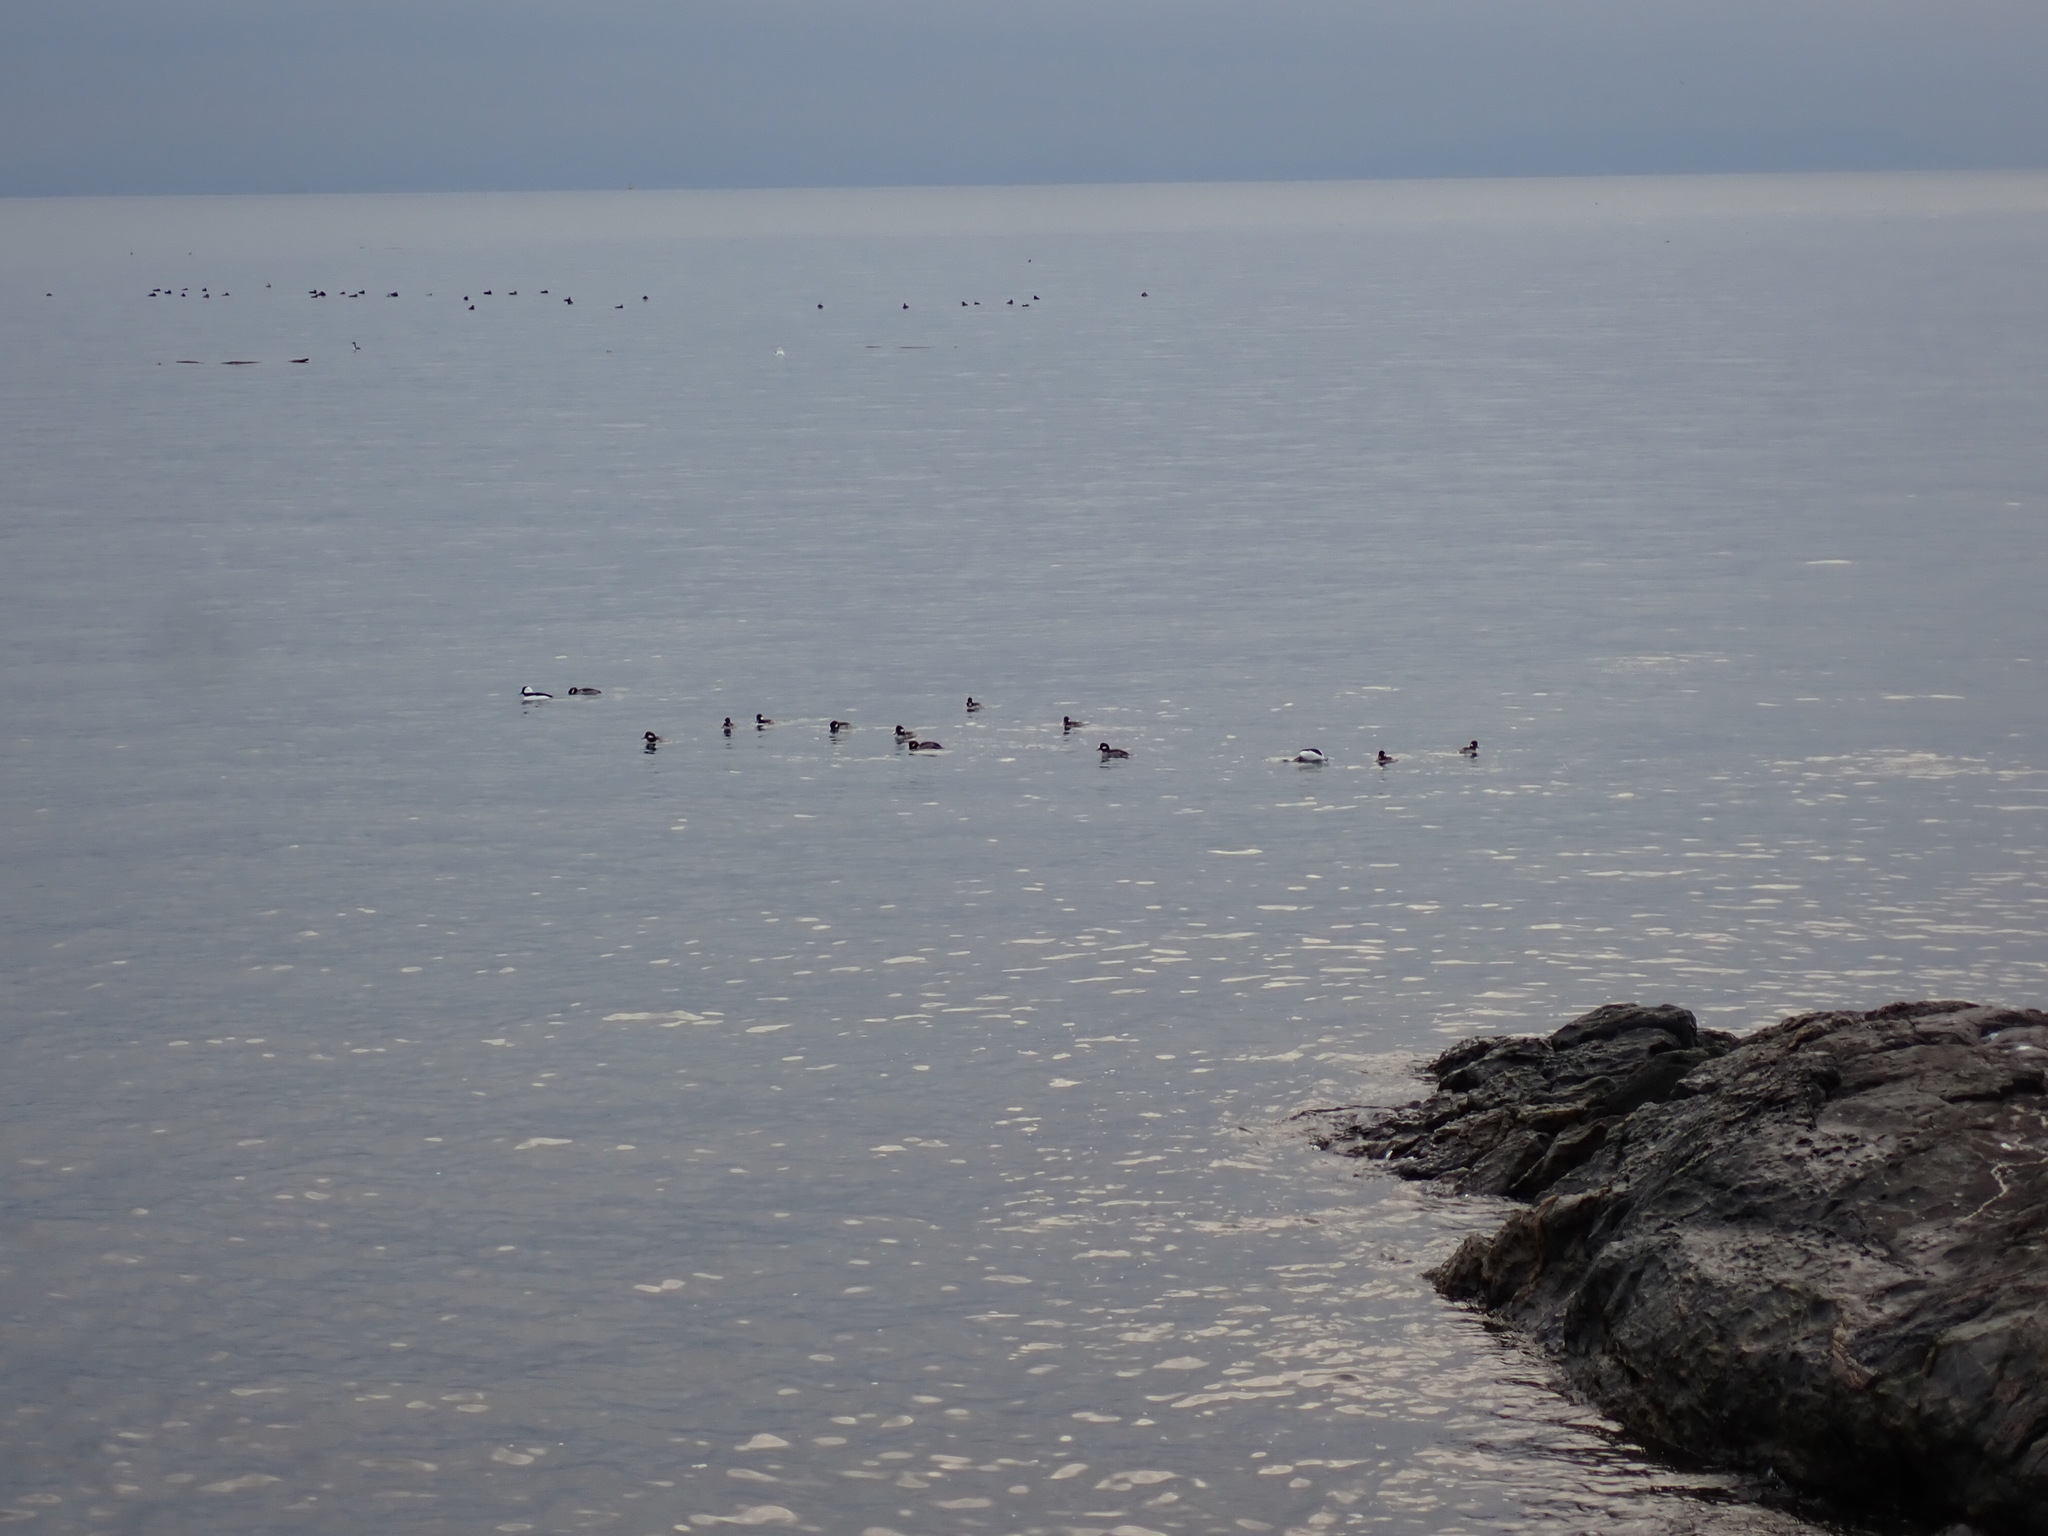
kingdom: Animalia
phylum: Chordata
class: Aves
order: Anseriformes
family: Anatidae
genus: Bucephala
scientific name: Bucephala albeola
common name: Bufflehead
